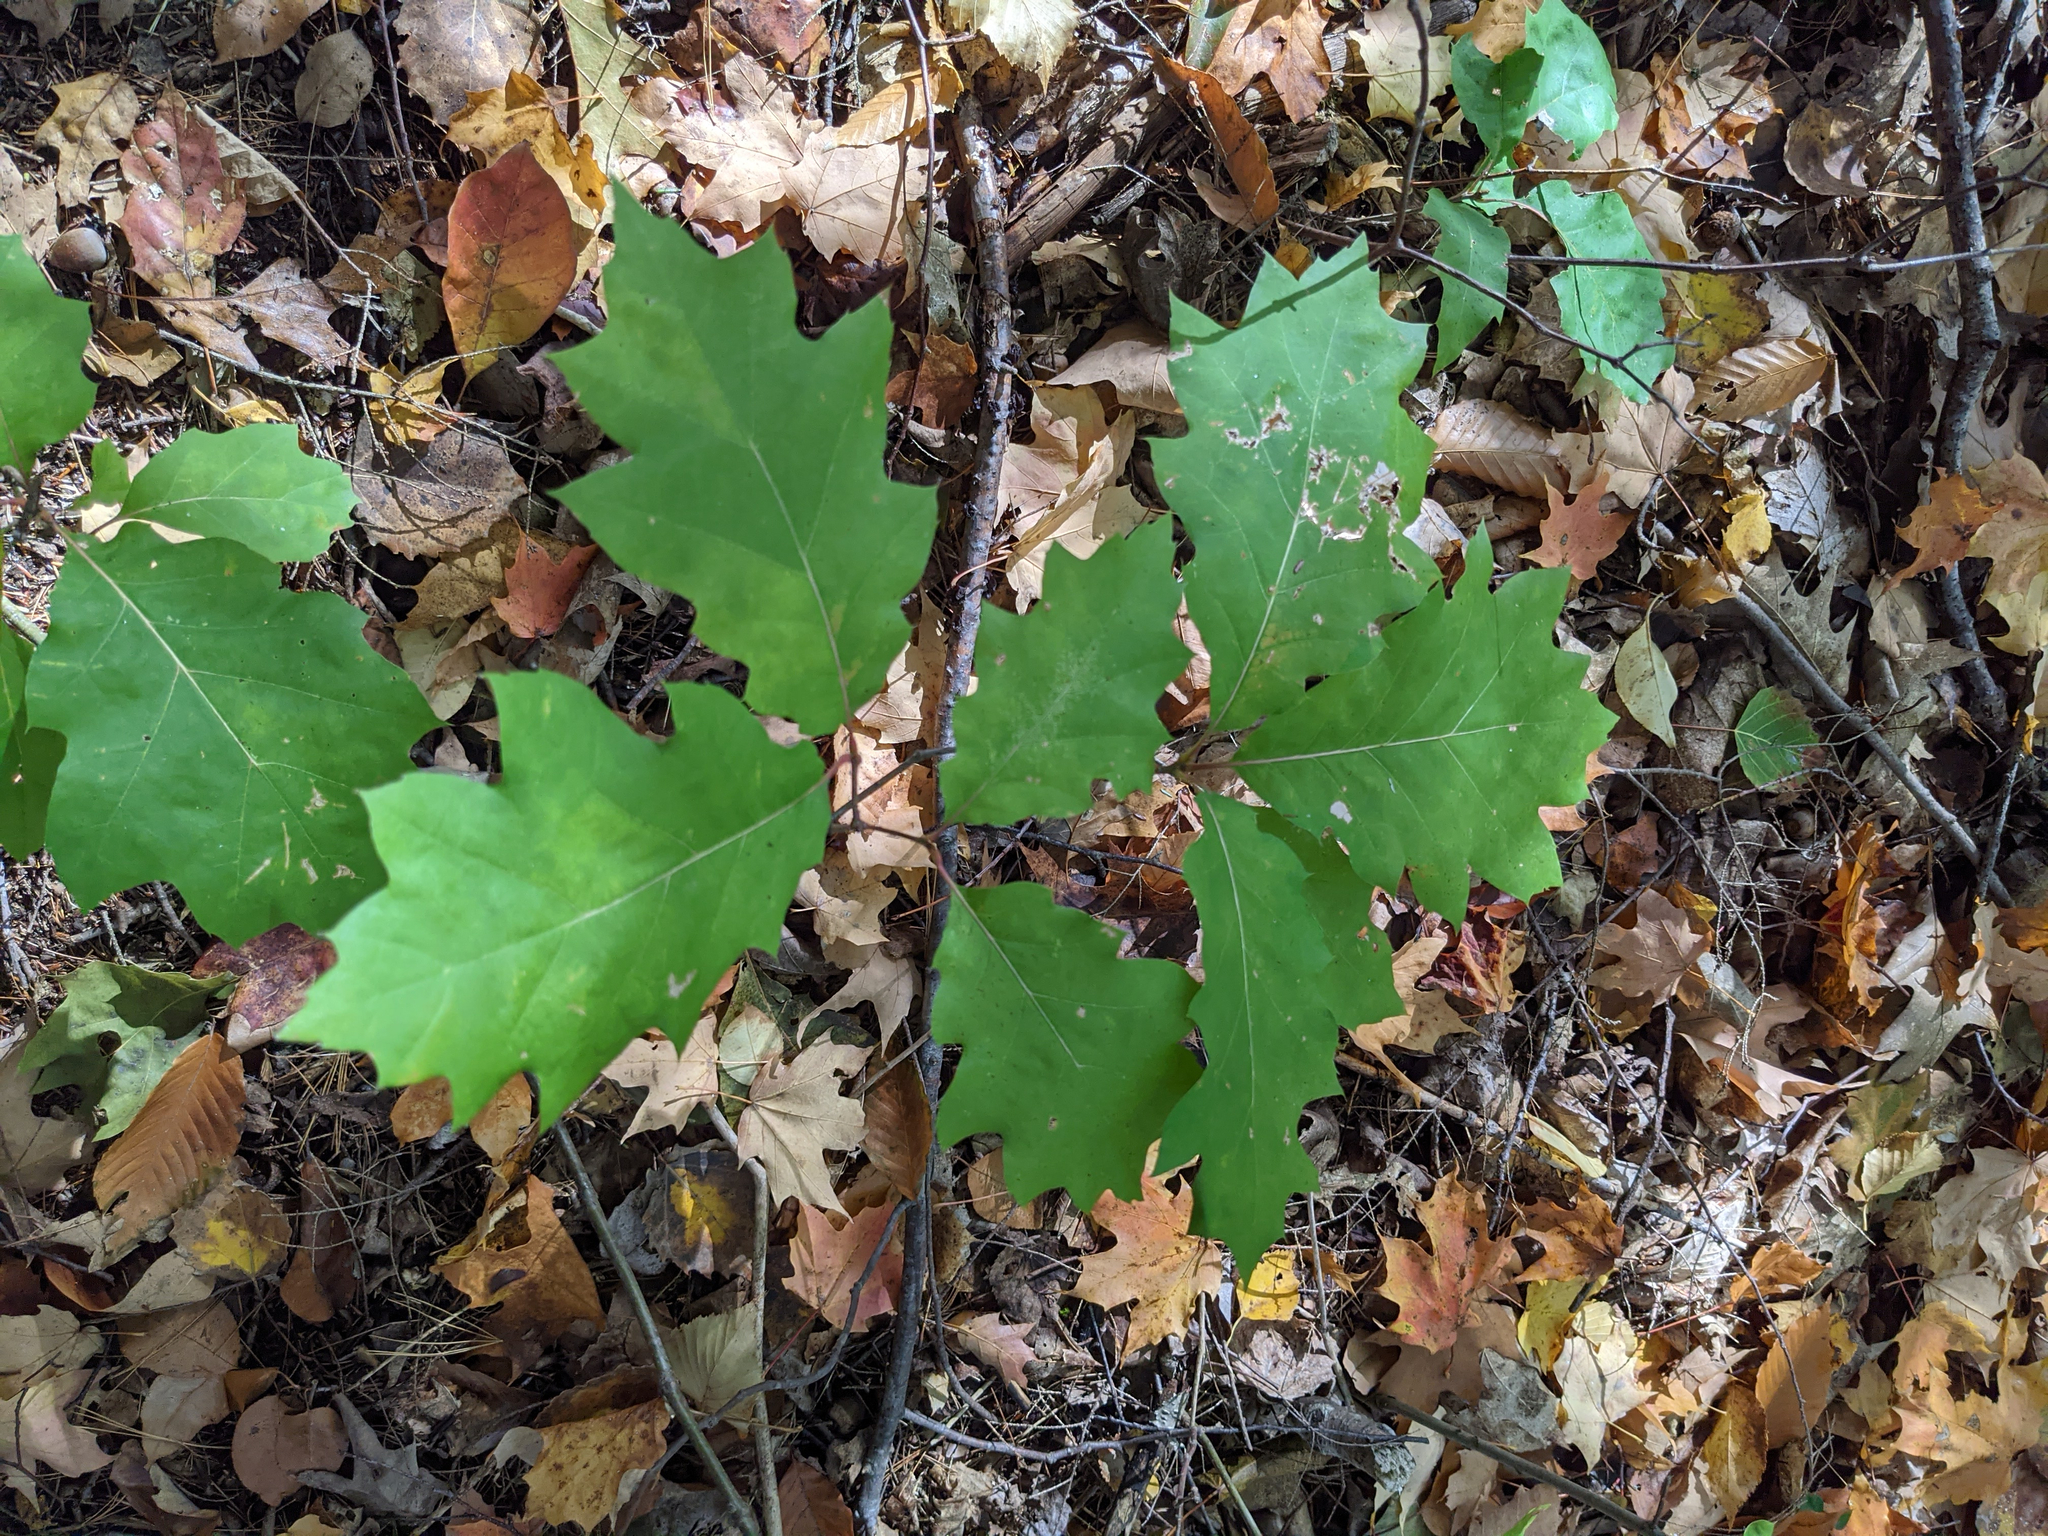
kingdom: Plantae
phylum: Tracheophyta
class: Magnoliopsida
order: Fagales
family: Fagaceae
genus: Quercus
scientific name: Quercus rubra
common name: Red oak
